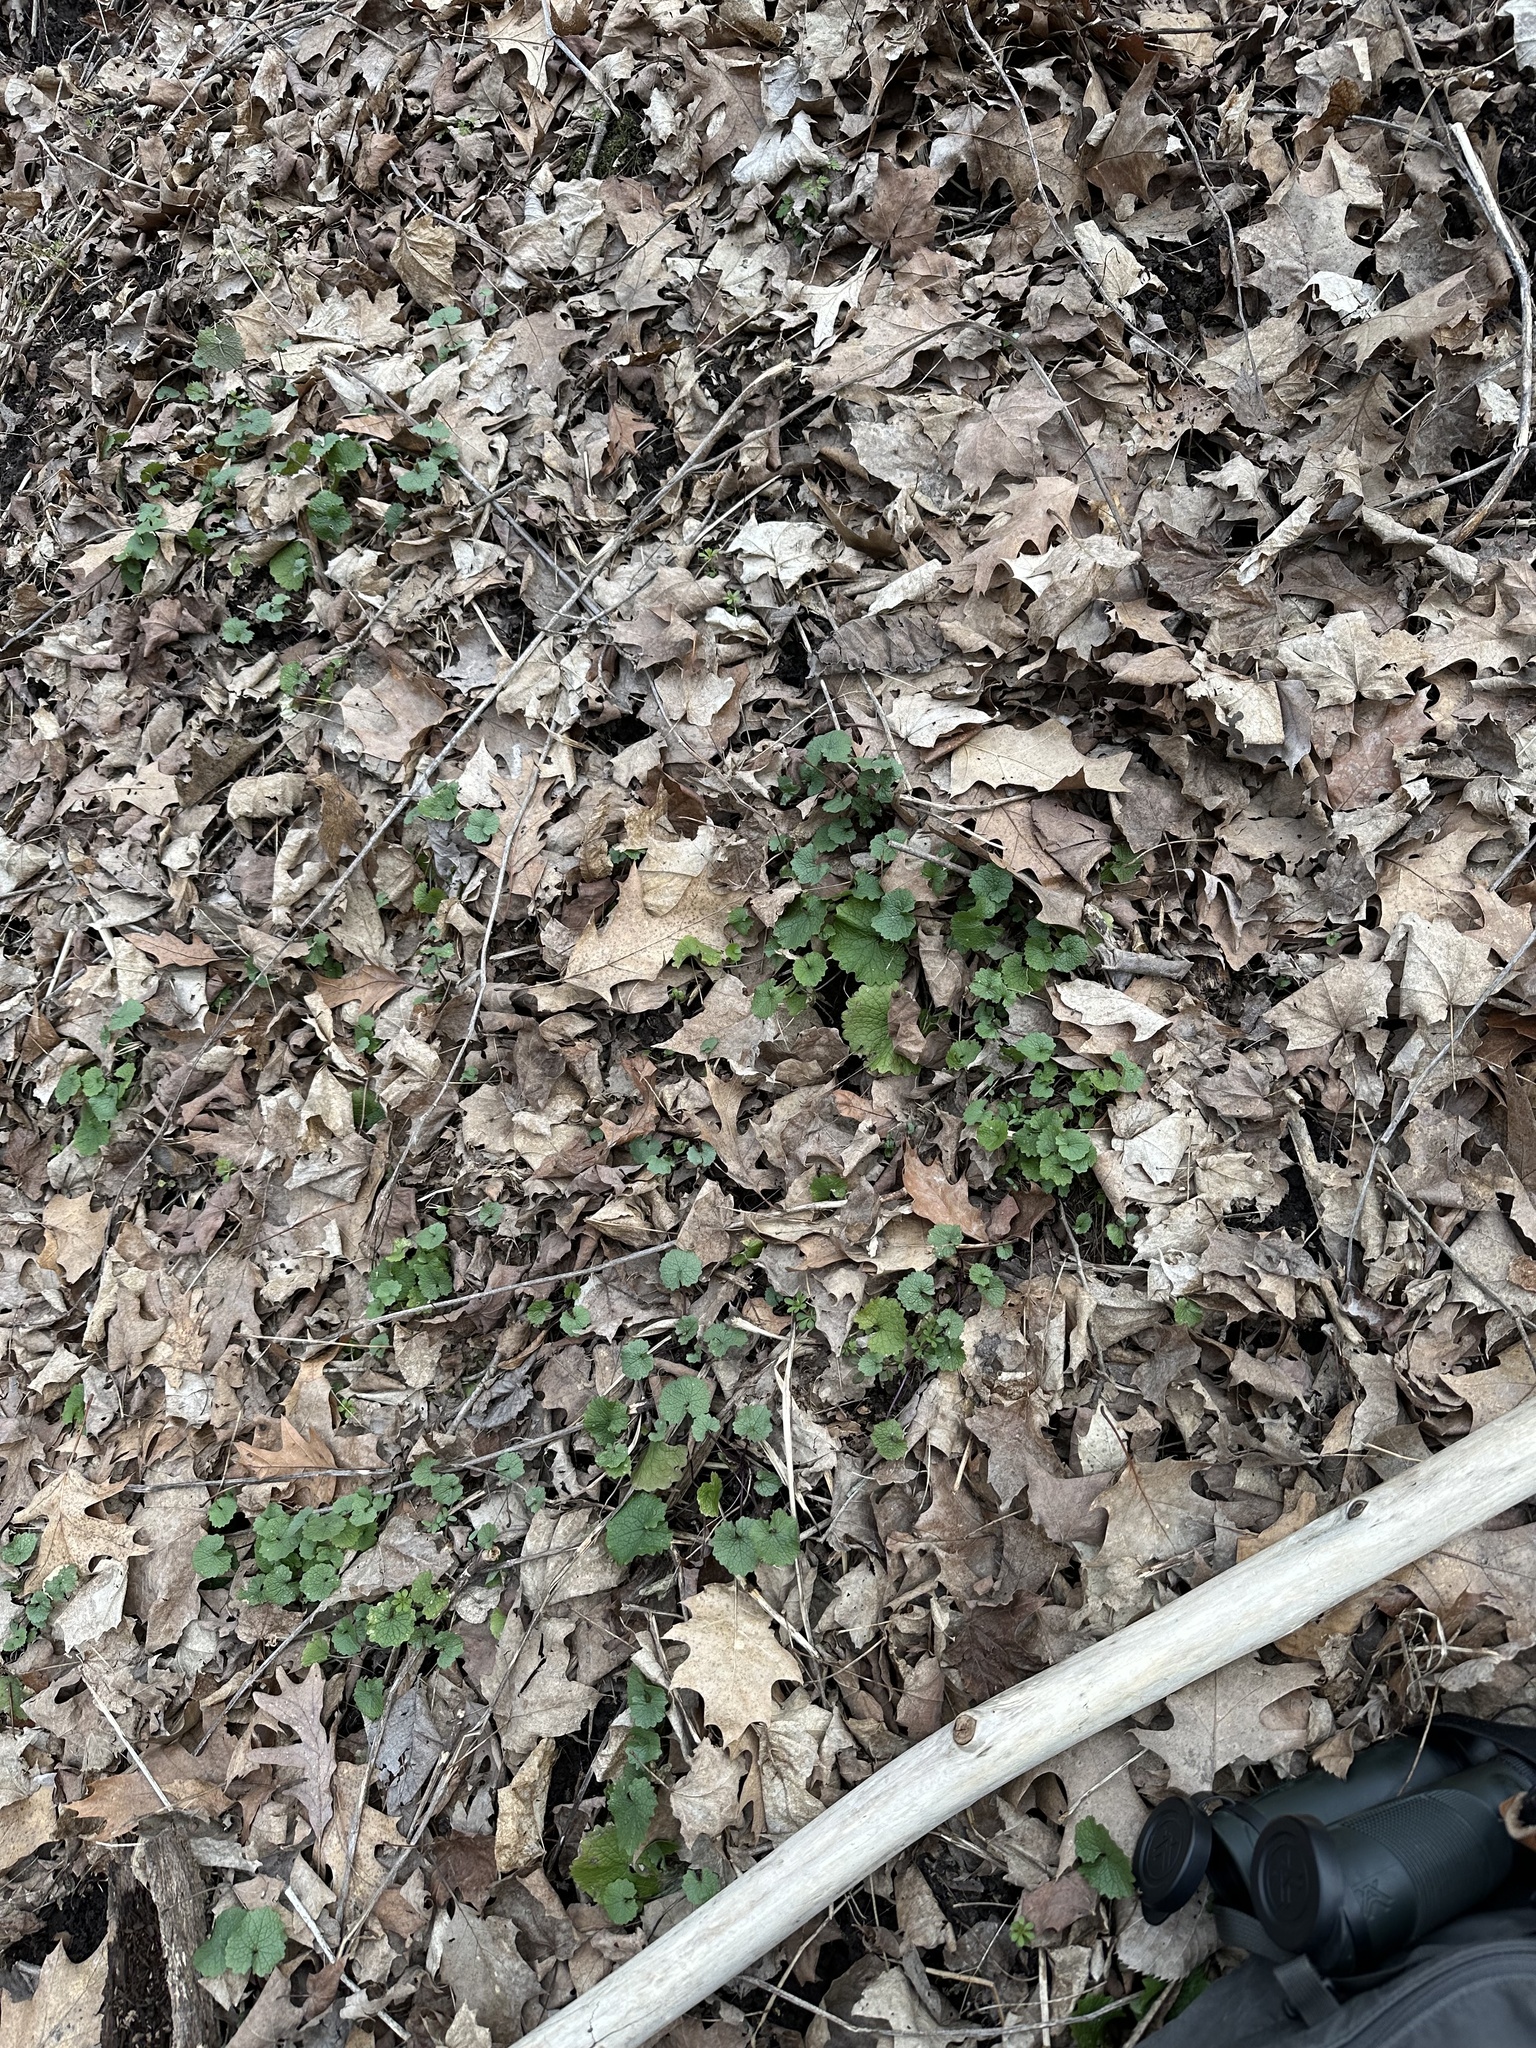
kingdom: Plantae
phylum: Tracheophyta
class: Magnoliopsida
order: Brassicales
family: Brassicaceae
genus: Alliaria
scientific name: Alliaria petiolata
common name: Garlic mustard
